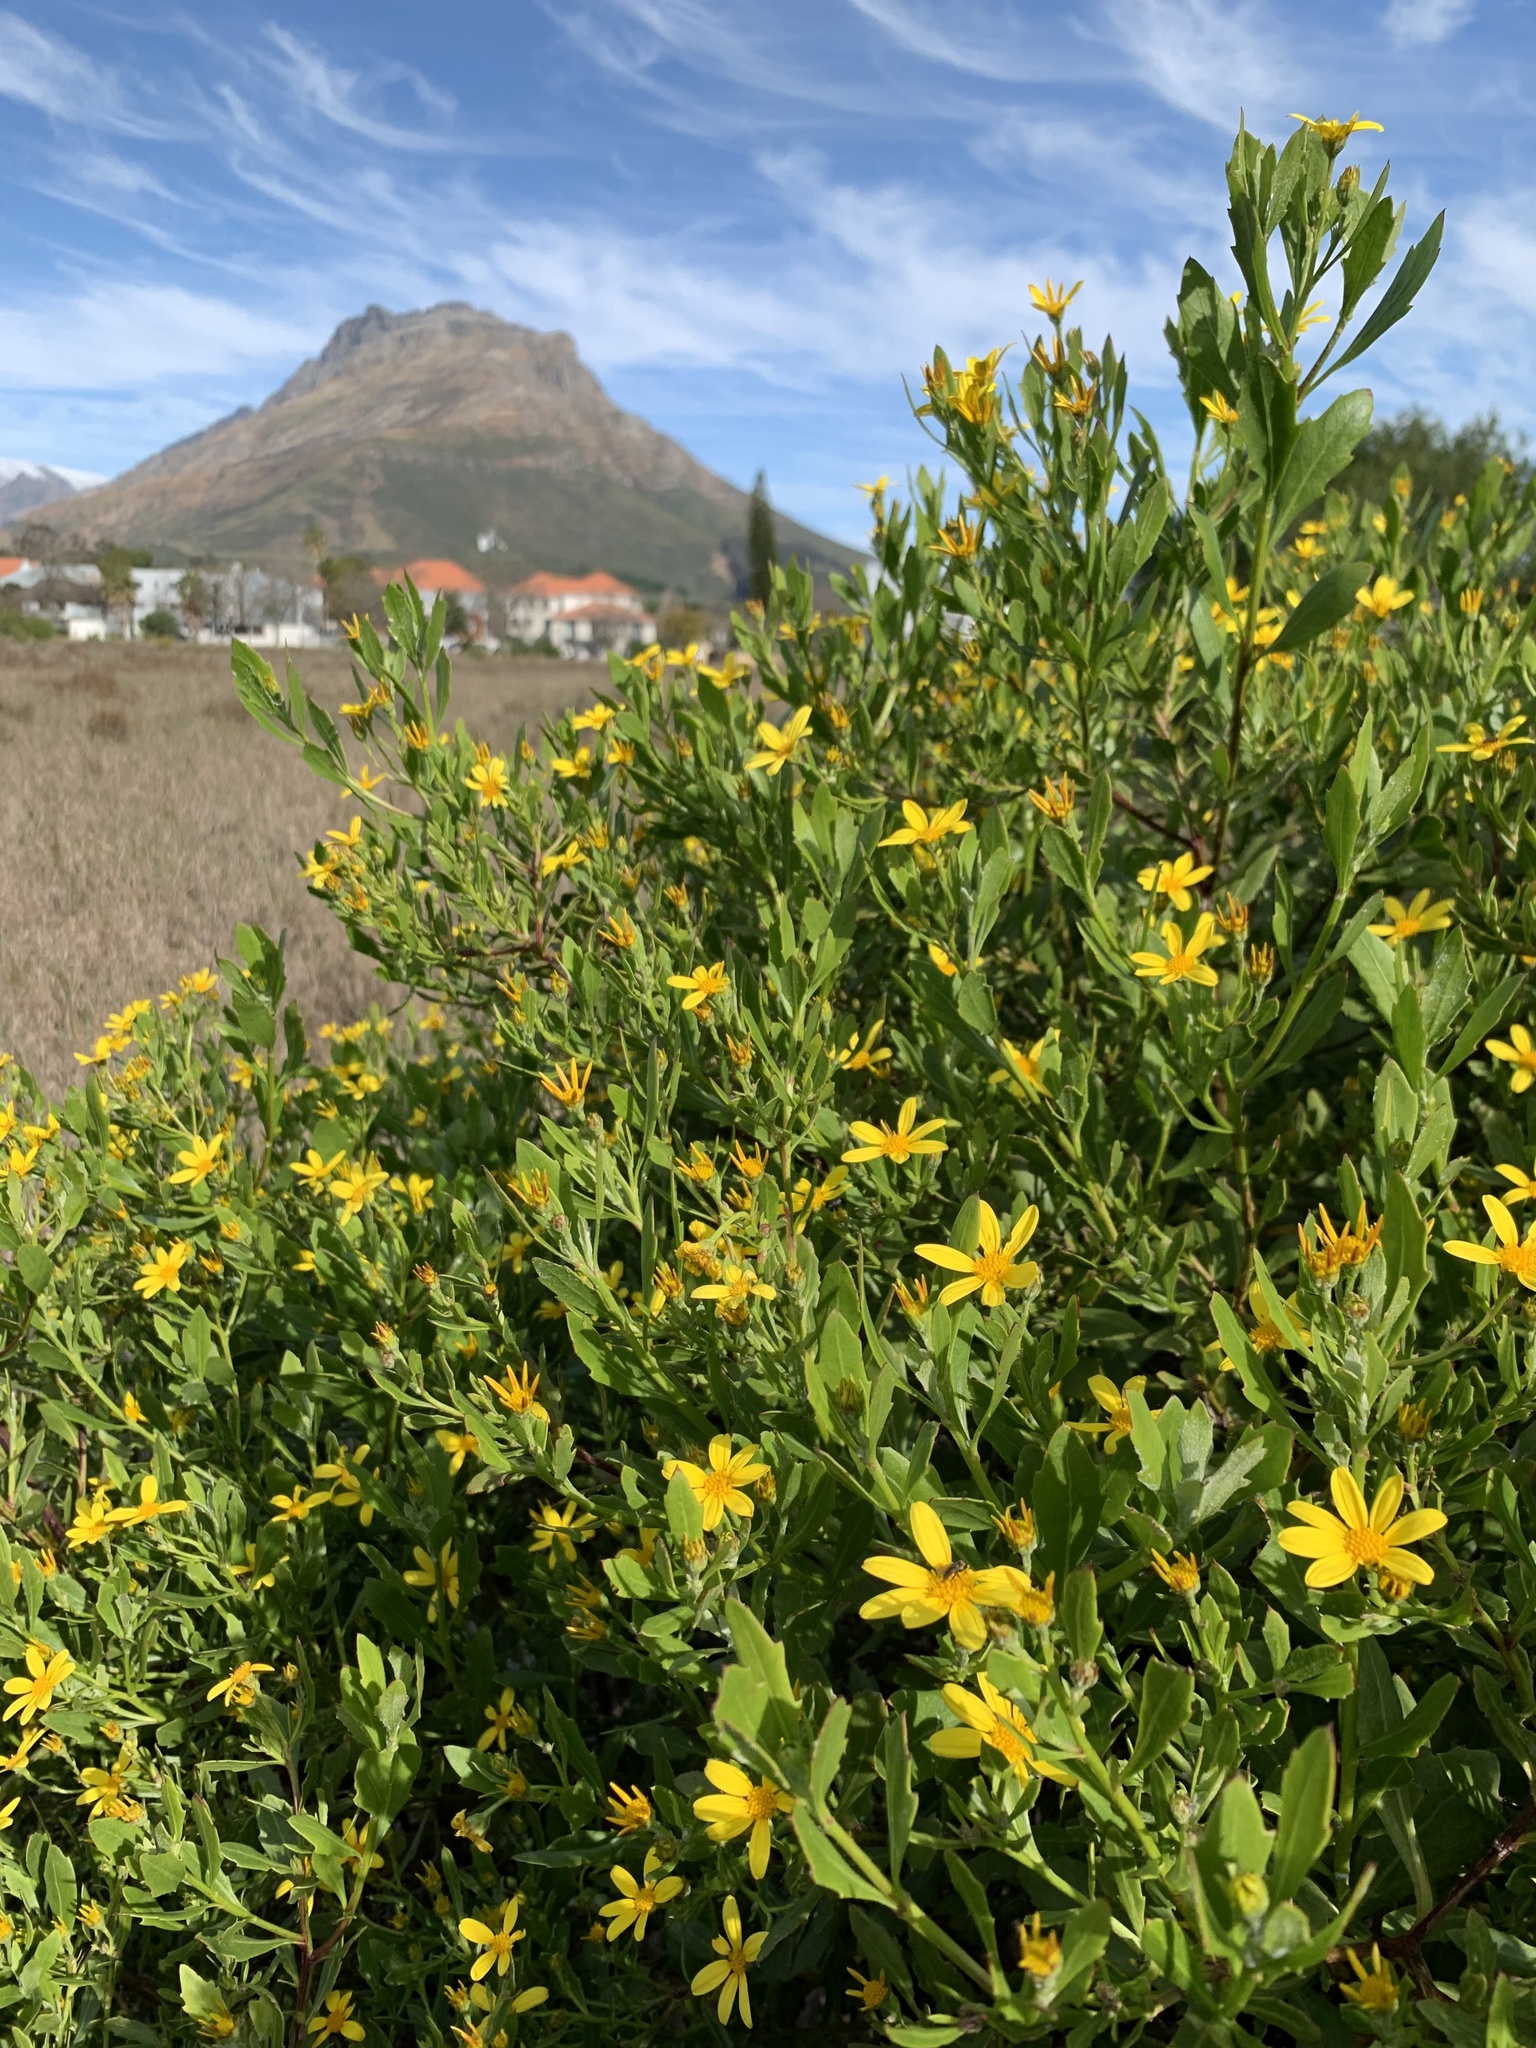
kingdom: Plantae
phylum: Tracheophyta
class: Magnoliopsida
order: Asterales
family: Asteraceae
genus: Osteospermum
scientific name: Osteospermum moniliferum
